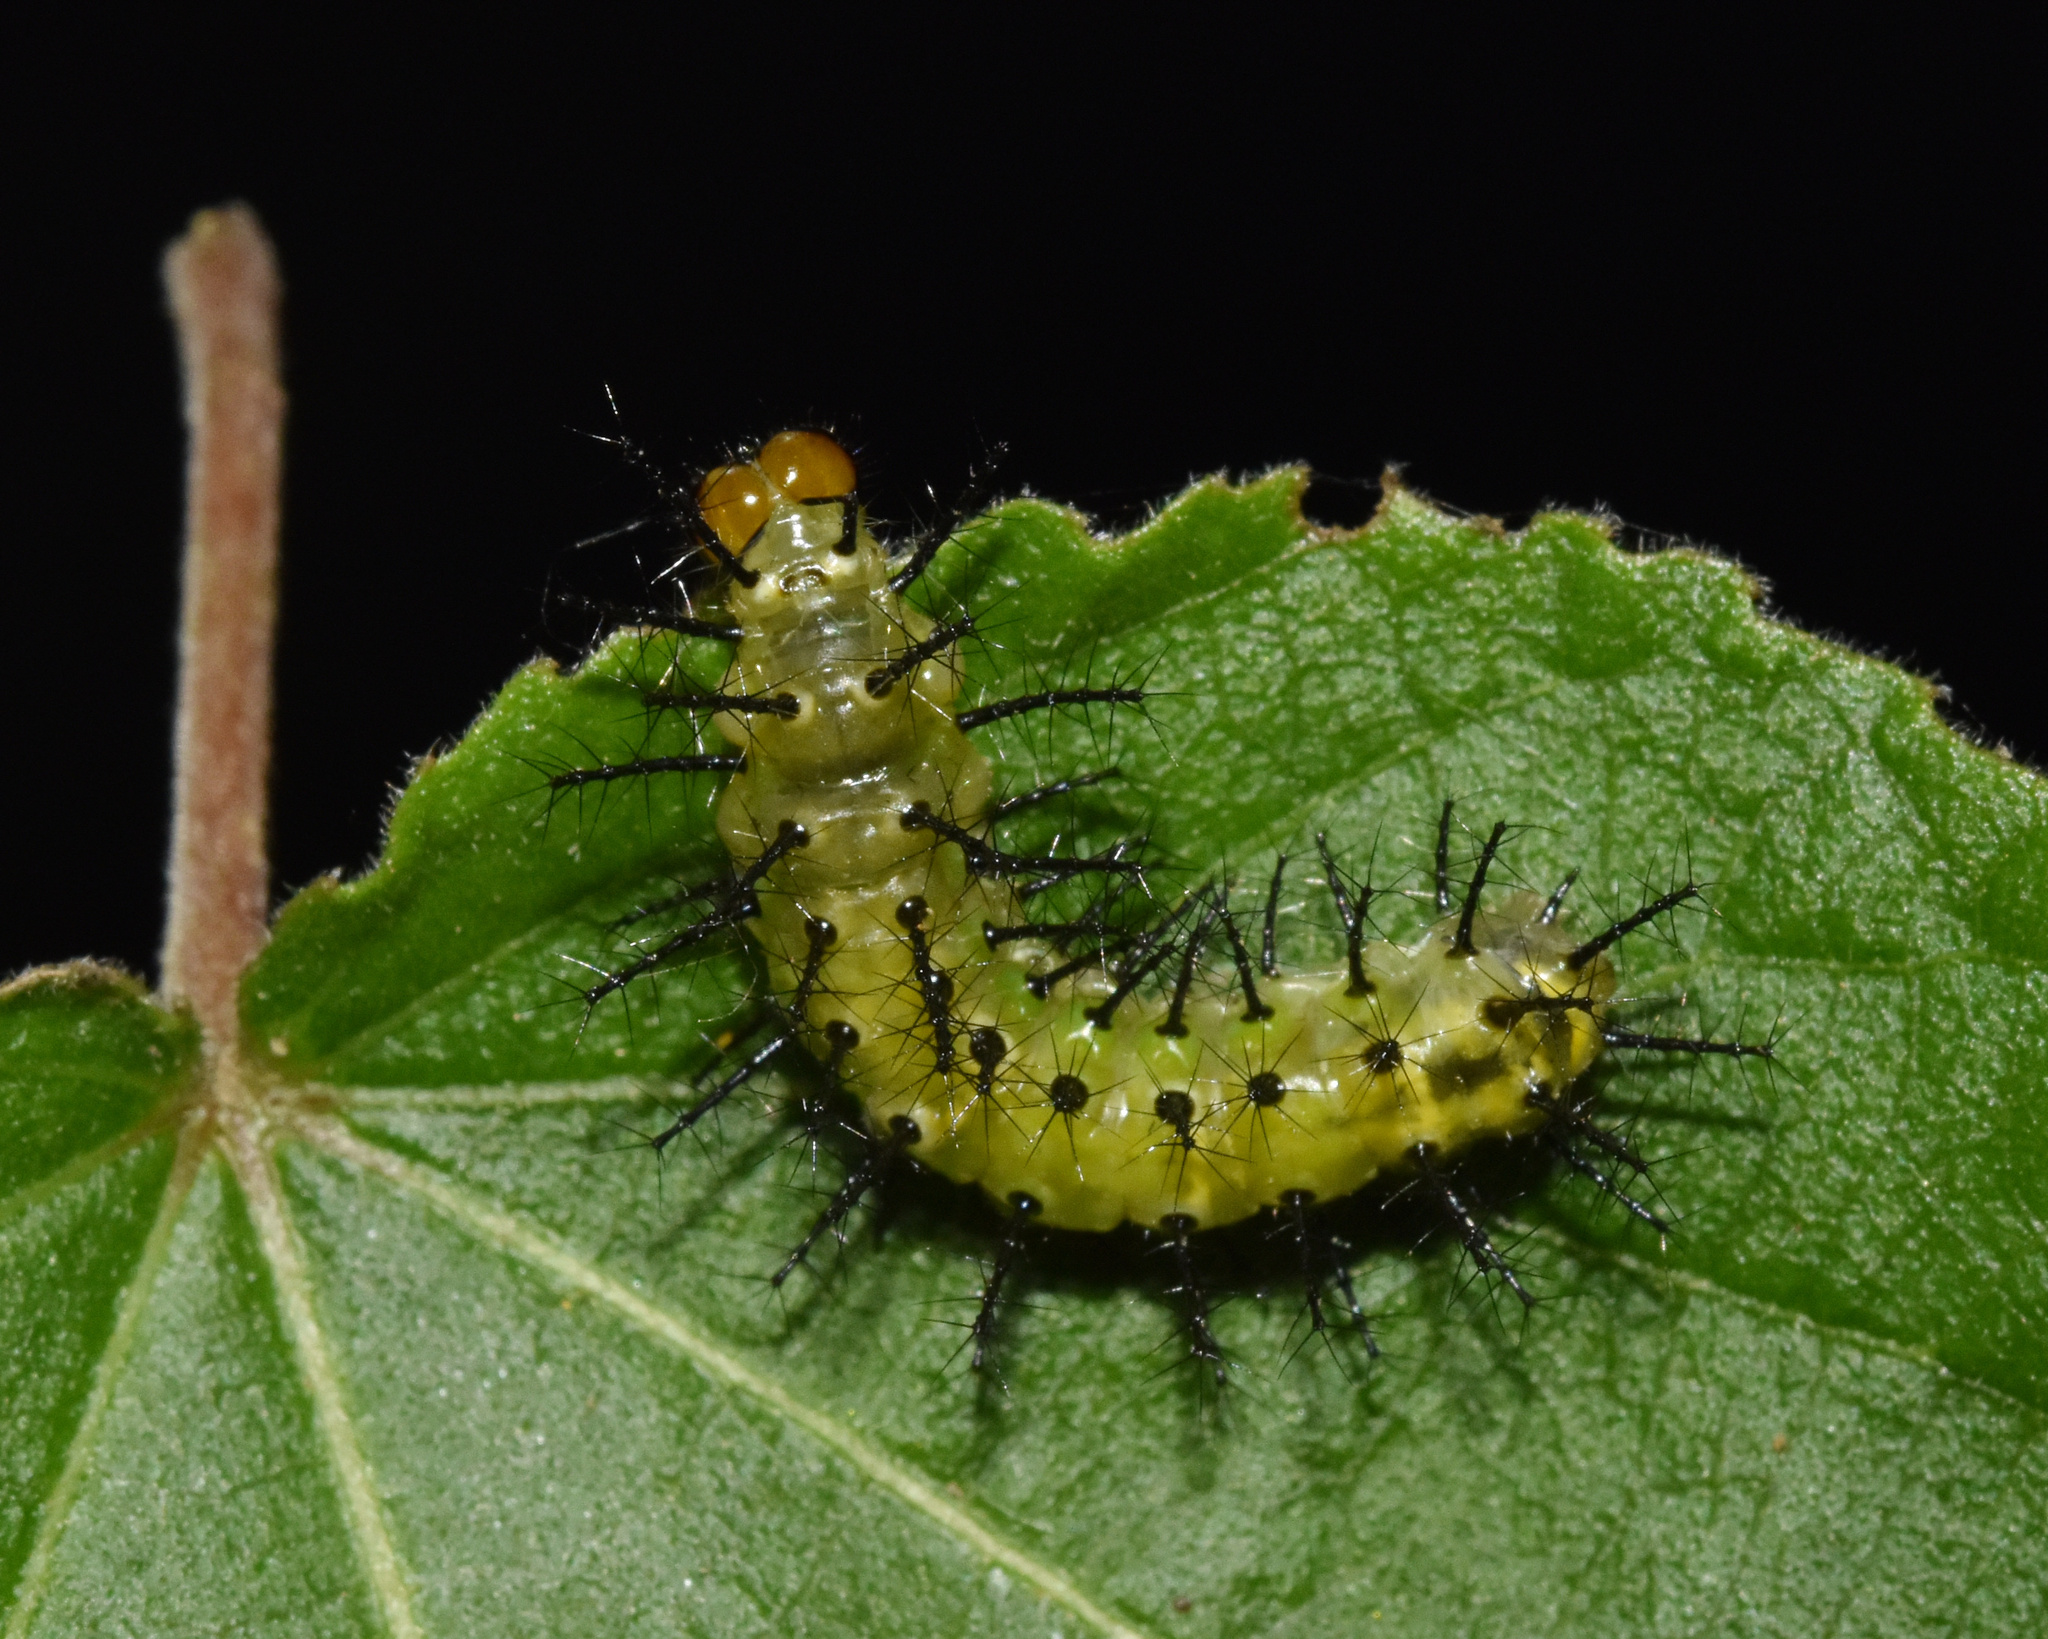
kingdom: Animalia
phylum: Arthropoda
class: Insecta
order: Lepidoptera
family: Nymphalidae
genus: Phalanta
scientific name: Phalanta columbina
